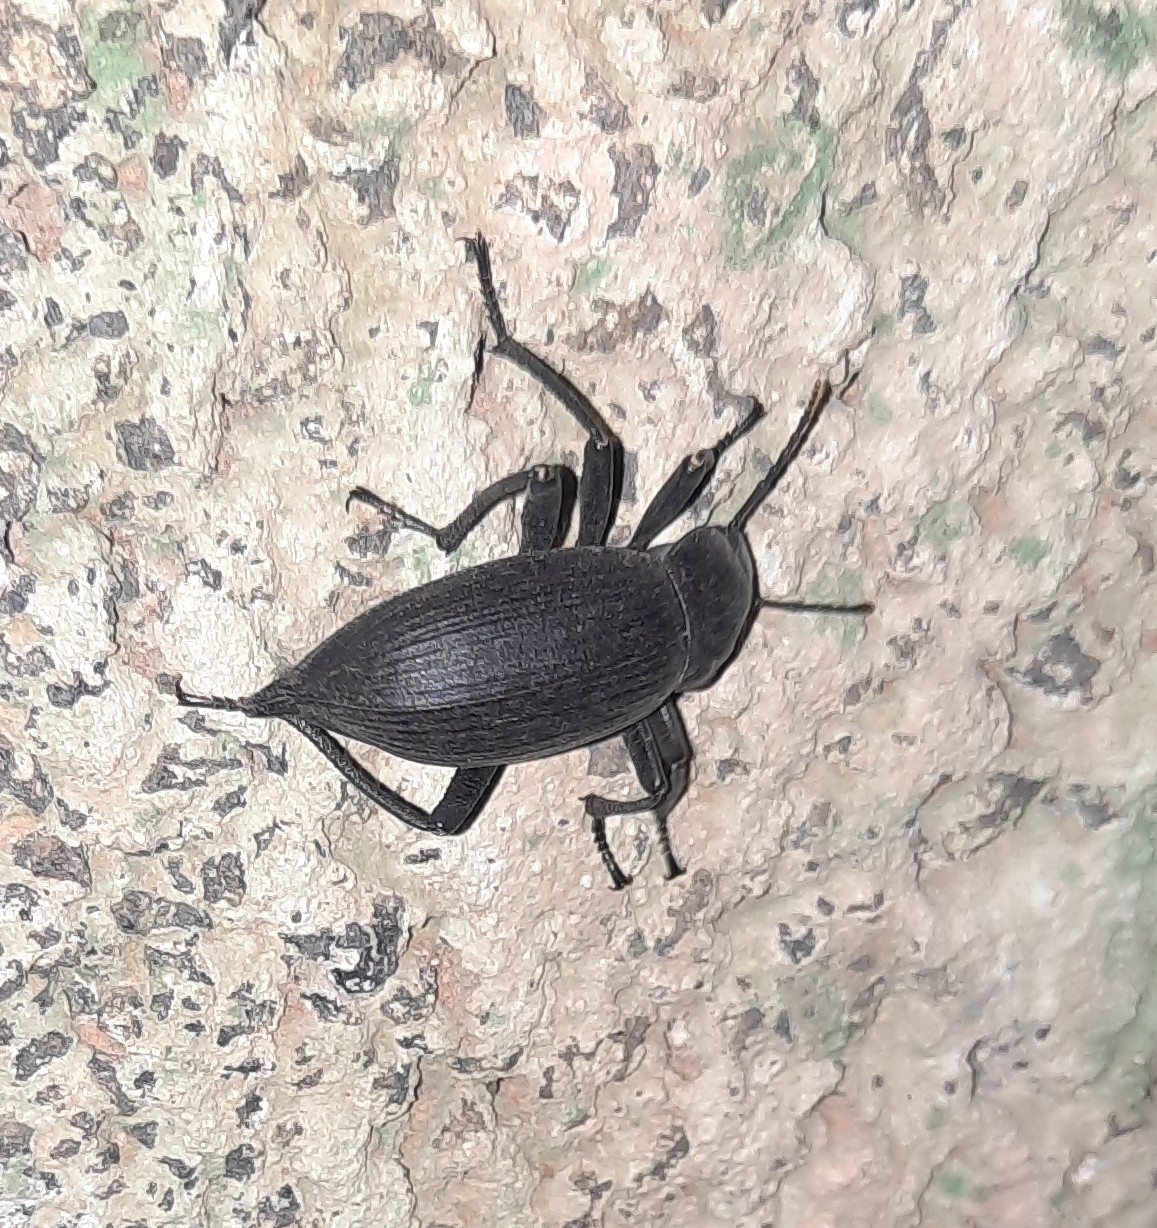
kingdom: Animalia
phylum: Arthropoda
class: Insecta
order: Coleoptera
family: Tenebrionidae
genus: Blaps
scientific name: Blaps gigas
